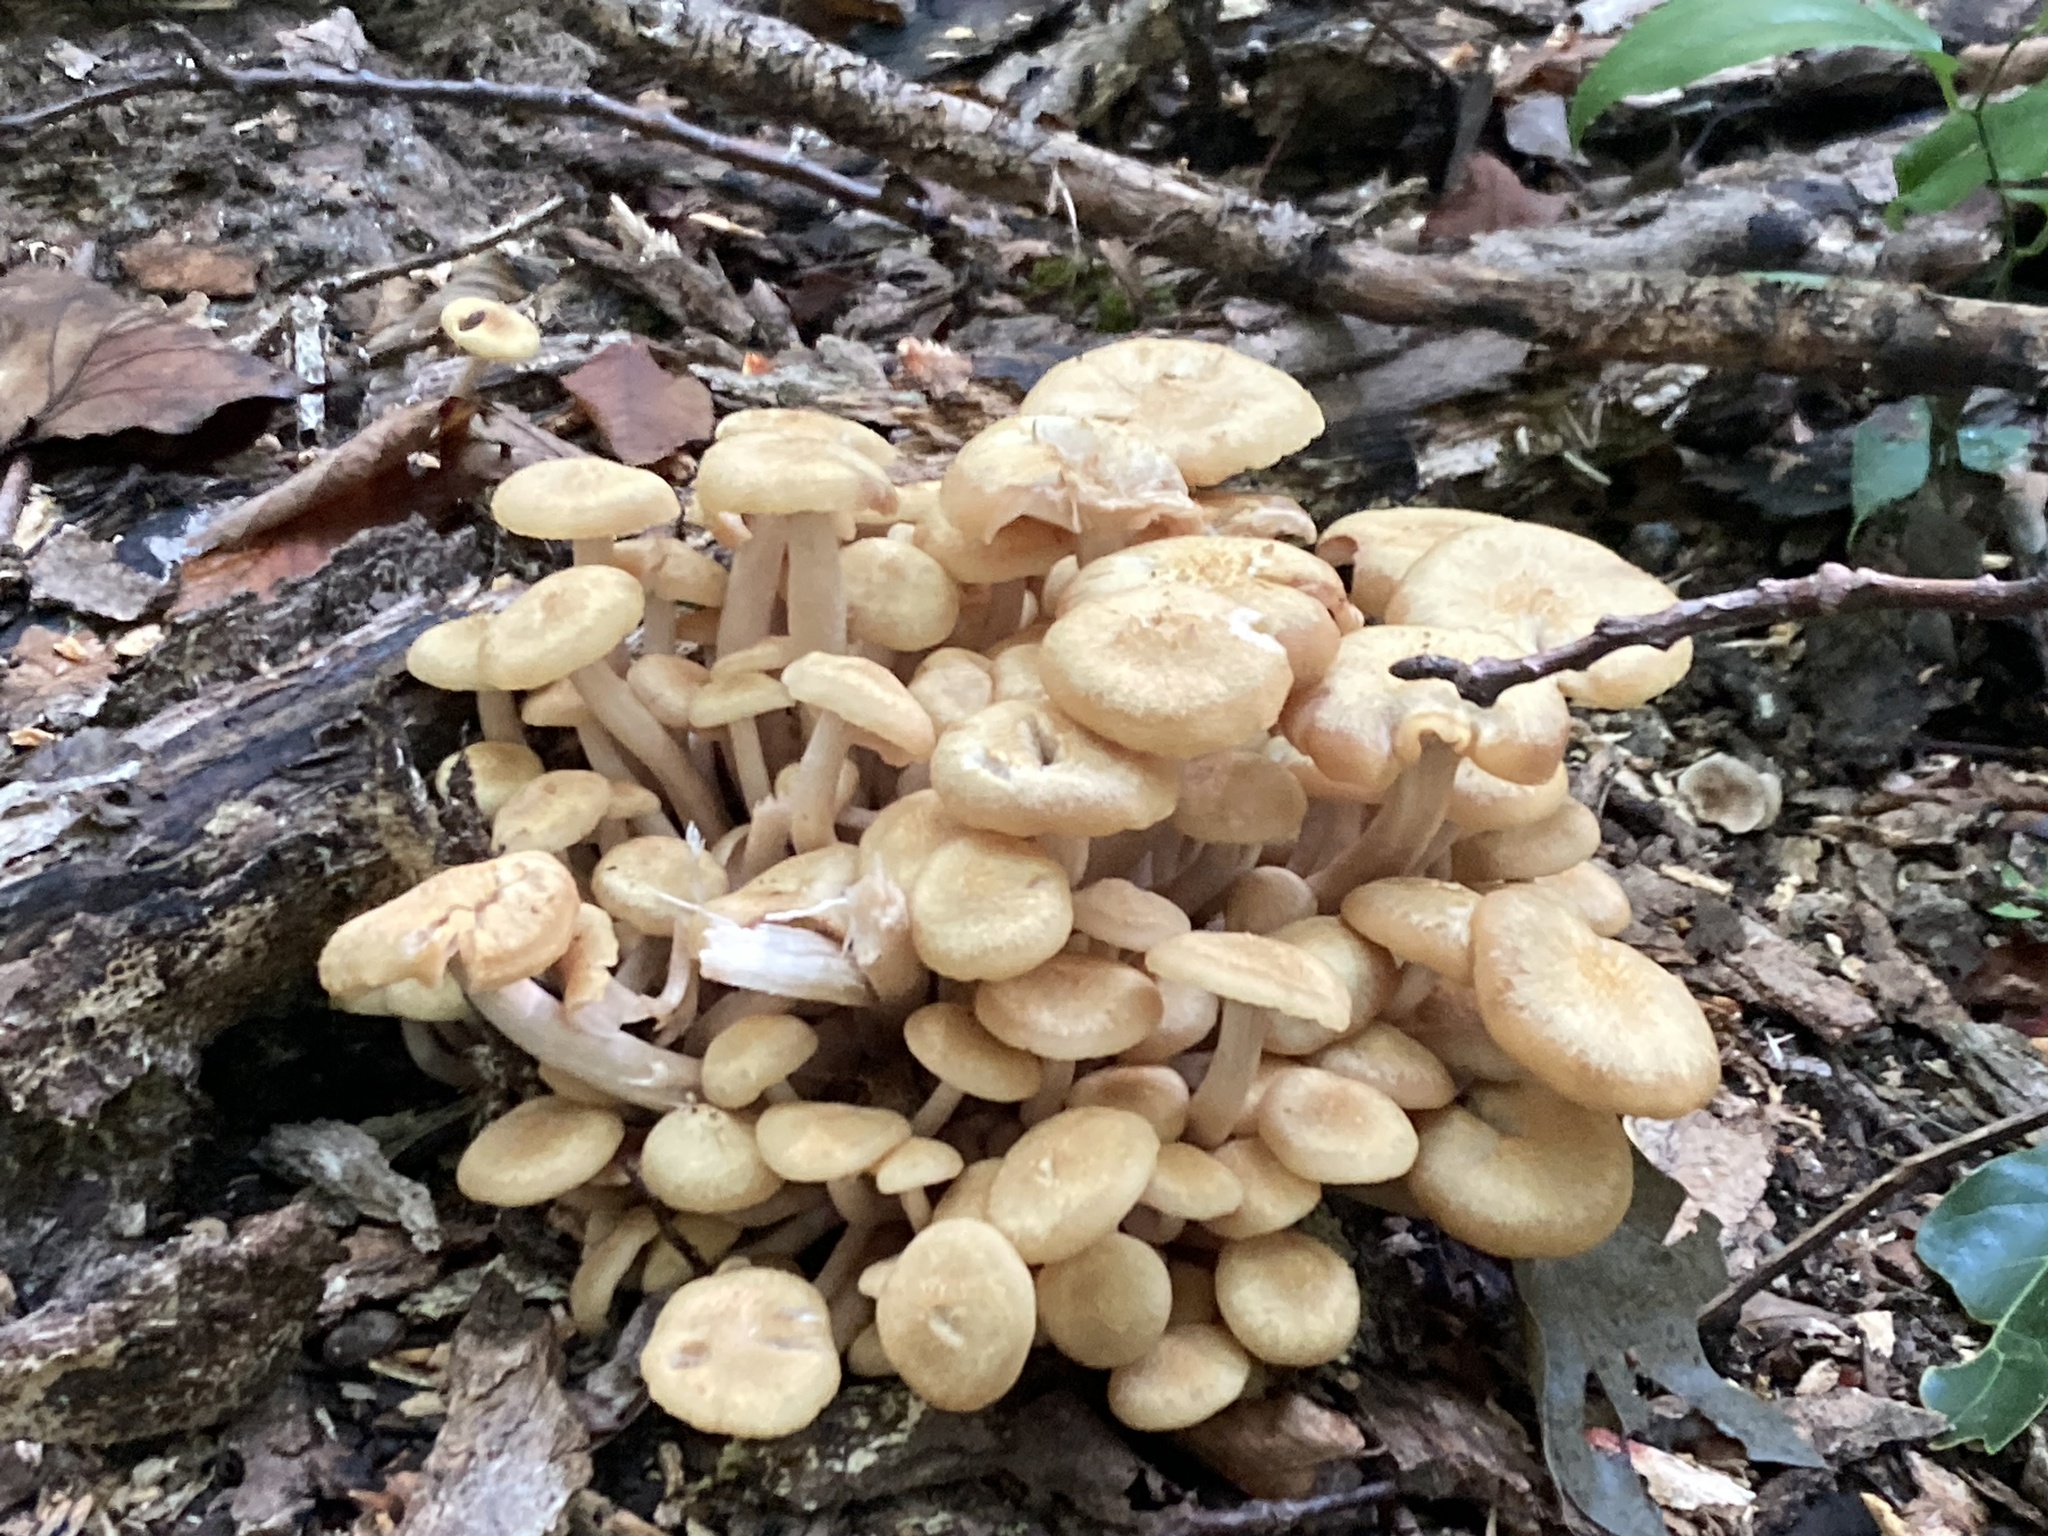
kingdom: Fungi
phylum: Basidiomycota
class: Agaricomycetes
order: Agaricales
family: Physalacriaceae
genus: Desarmillaria
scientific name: Desarmillaria caespitosa
